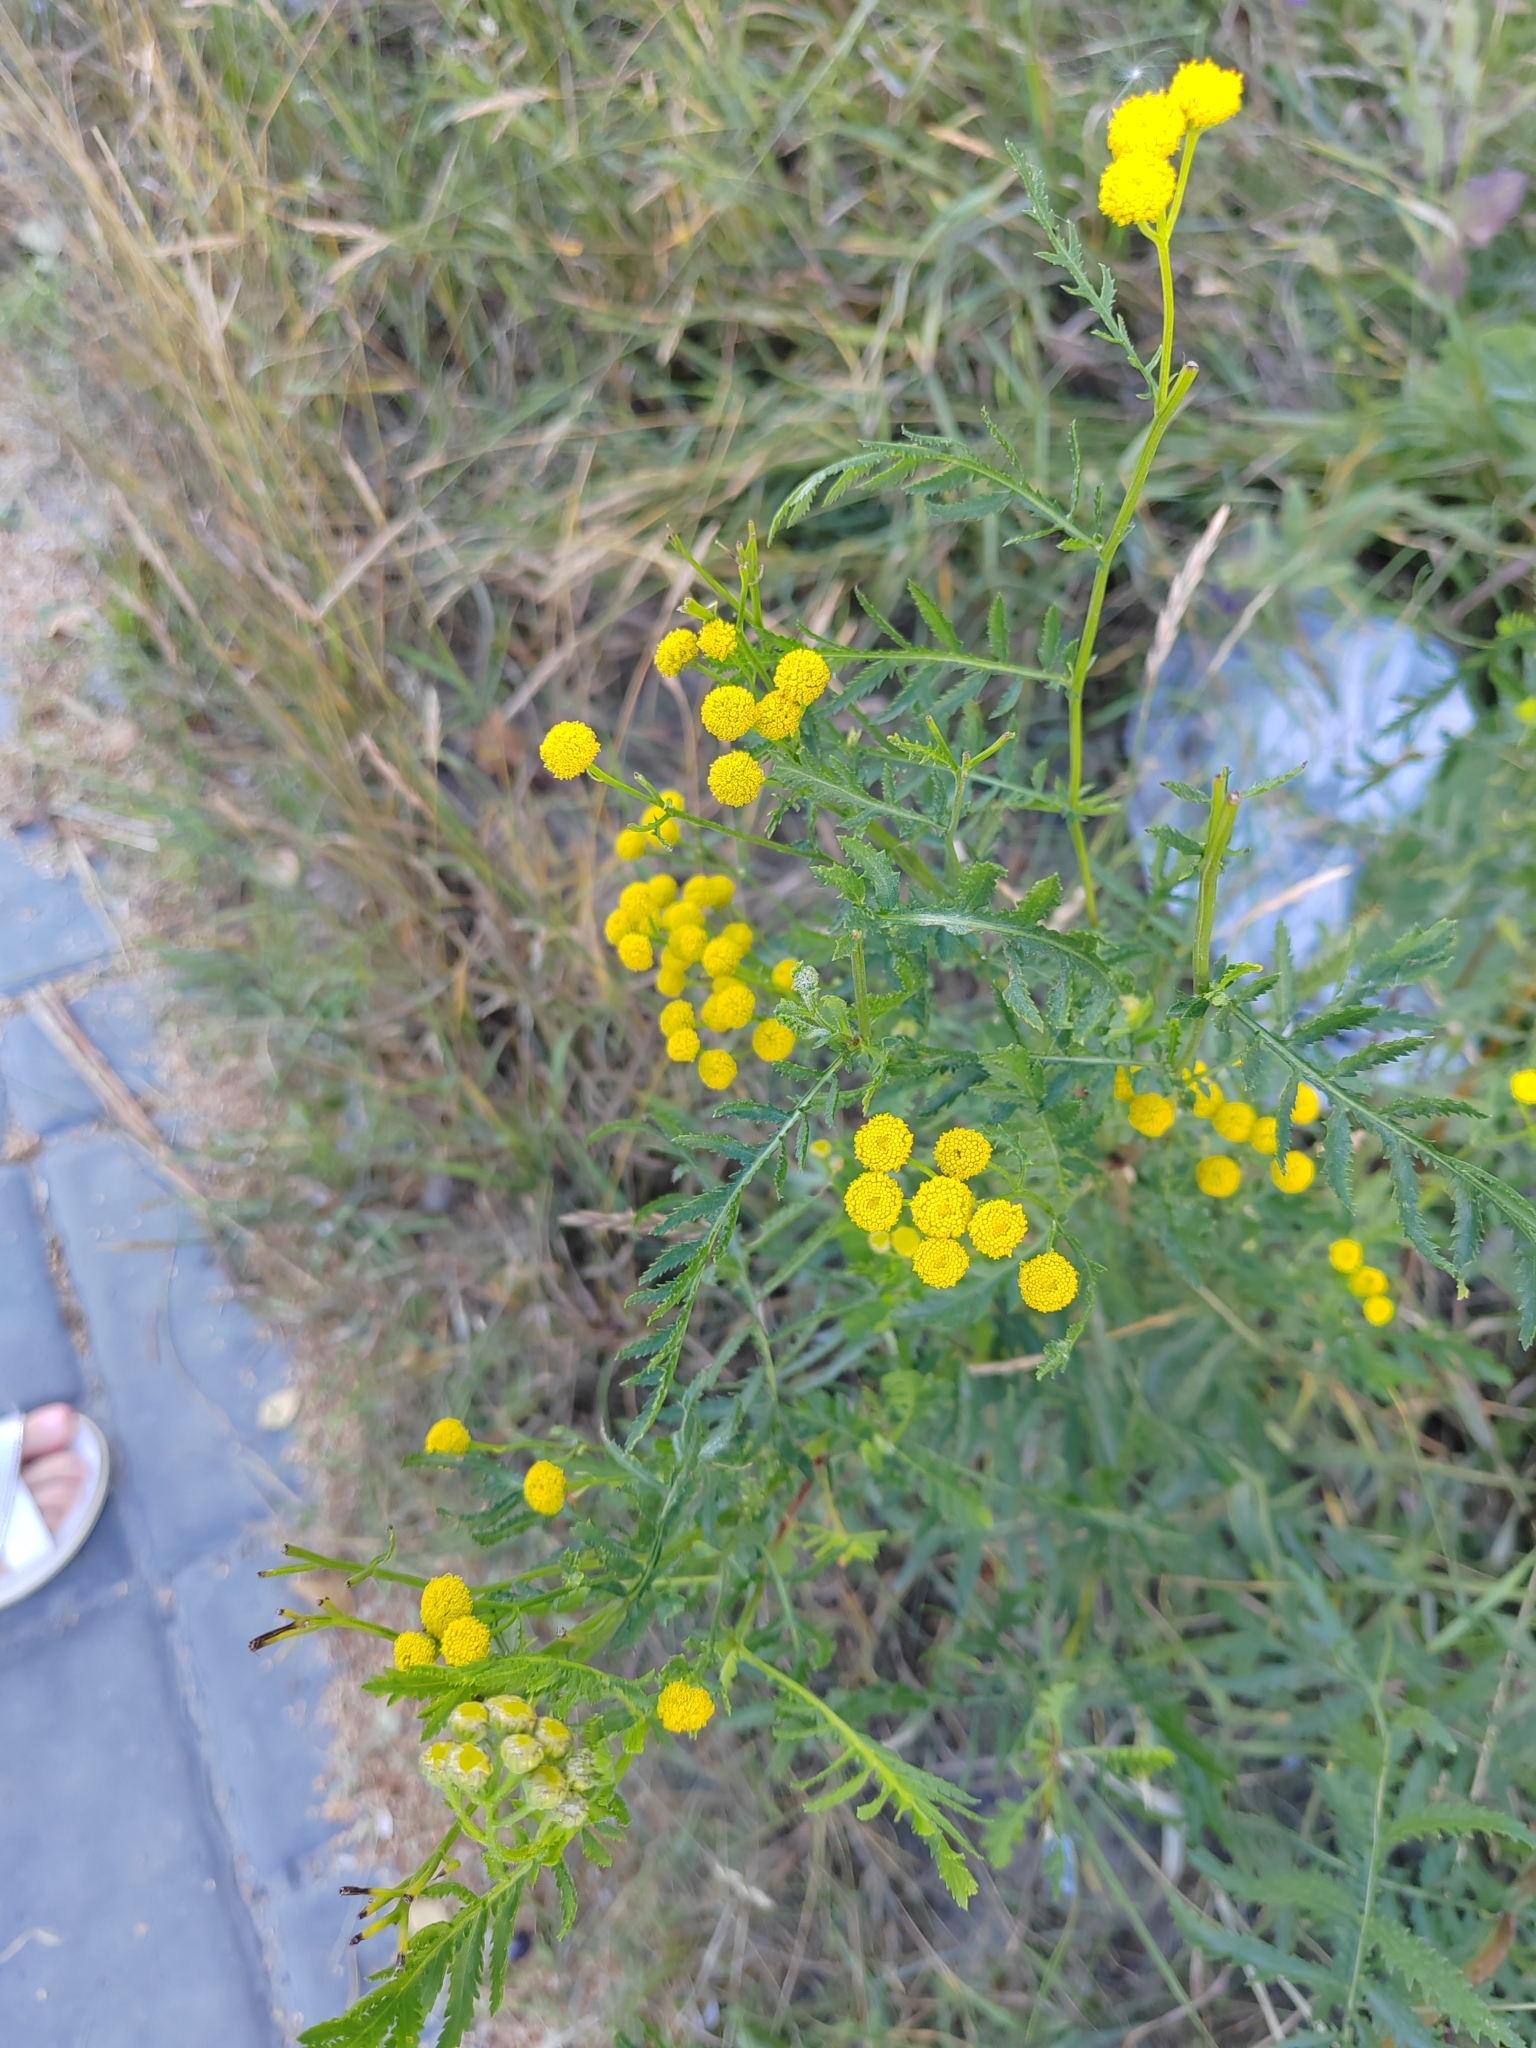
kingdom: Plantae
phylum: Tracheophyta
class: Magnoliopsida
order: Asterales
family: Asteraceae
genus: Tanacetum
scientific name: Tanacetum vulgare
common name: Common tansy
